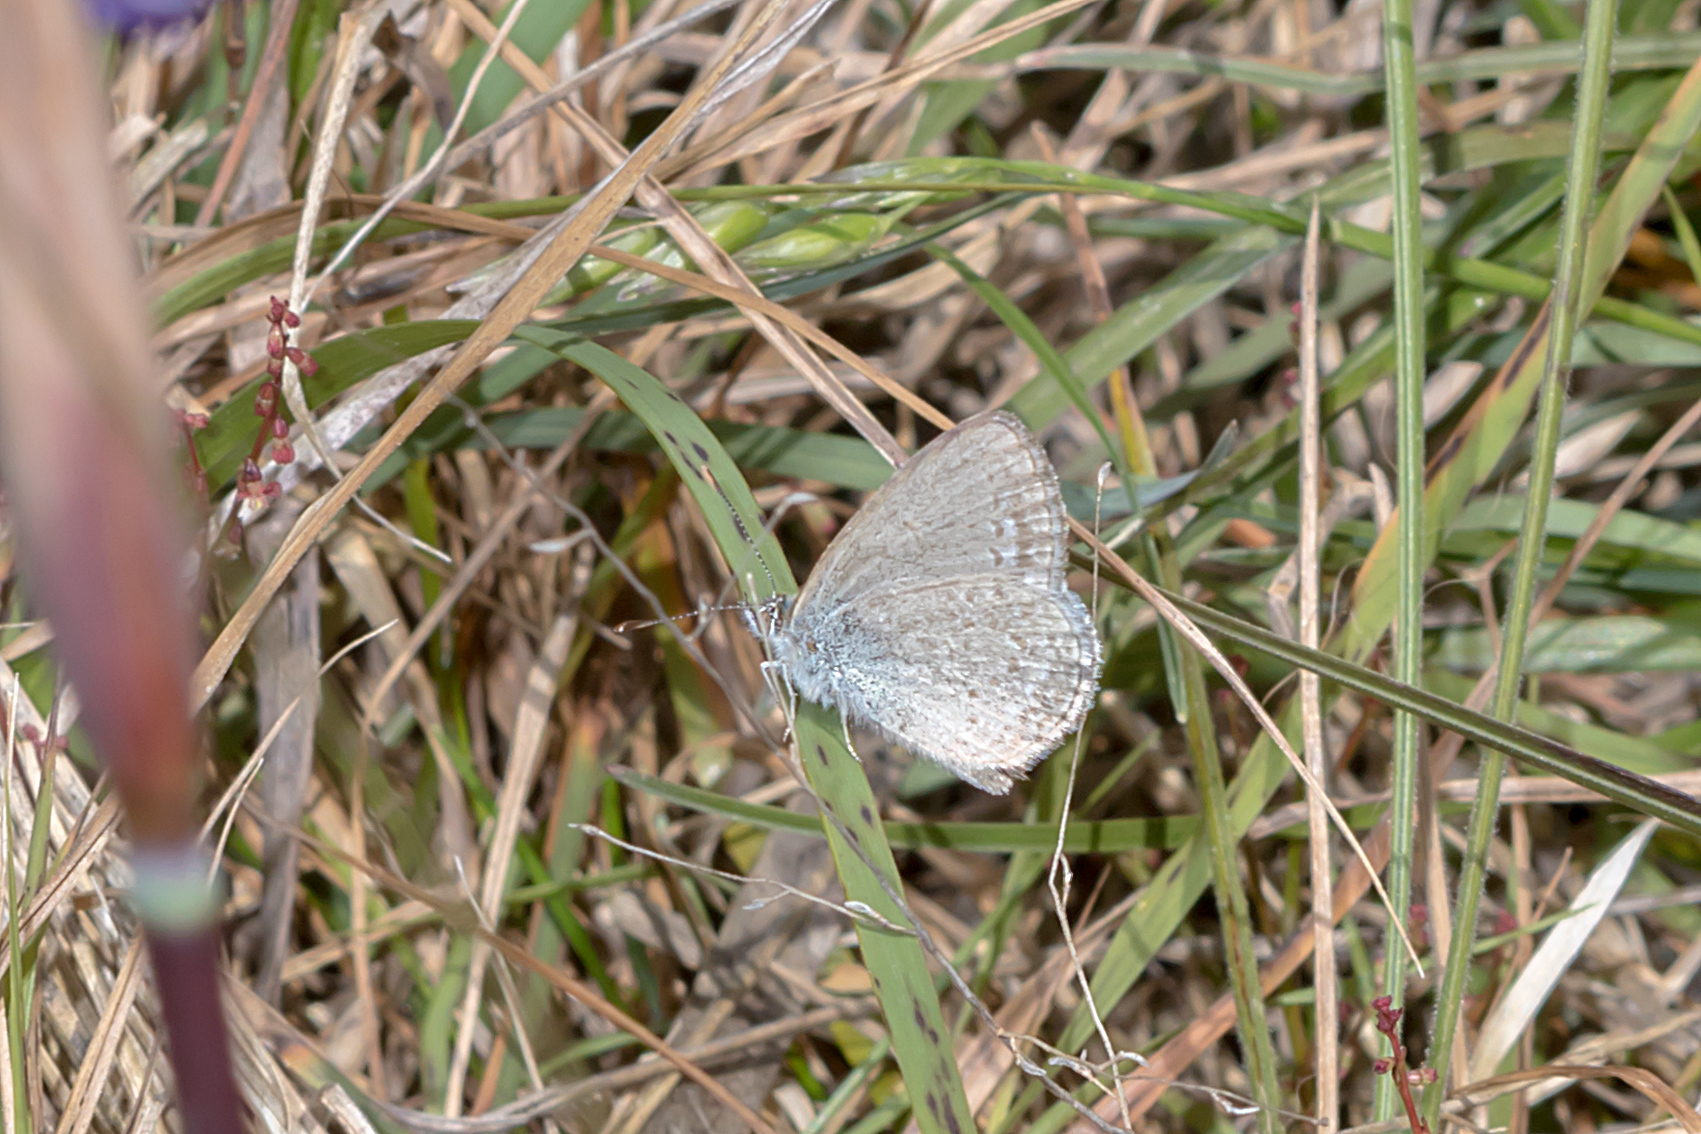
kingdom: Animalia
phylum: Arthropoda
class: Insecta
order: Lepidoptera
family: Lycaenidae
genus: Zizina
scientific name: Zizina labradus
